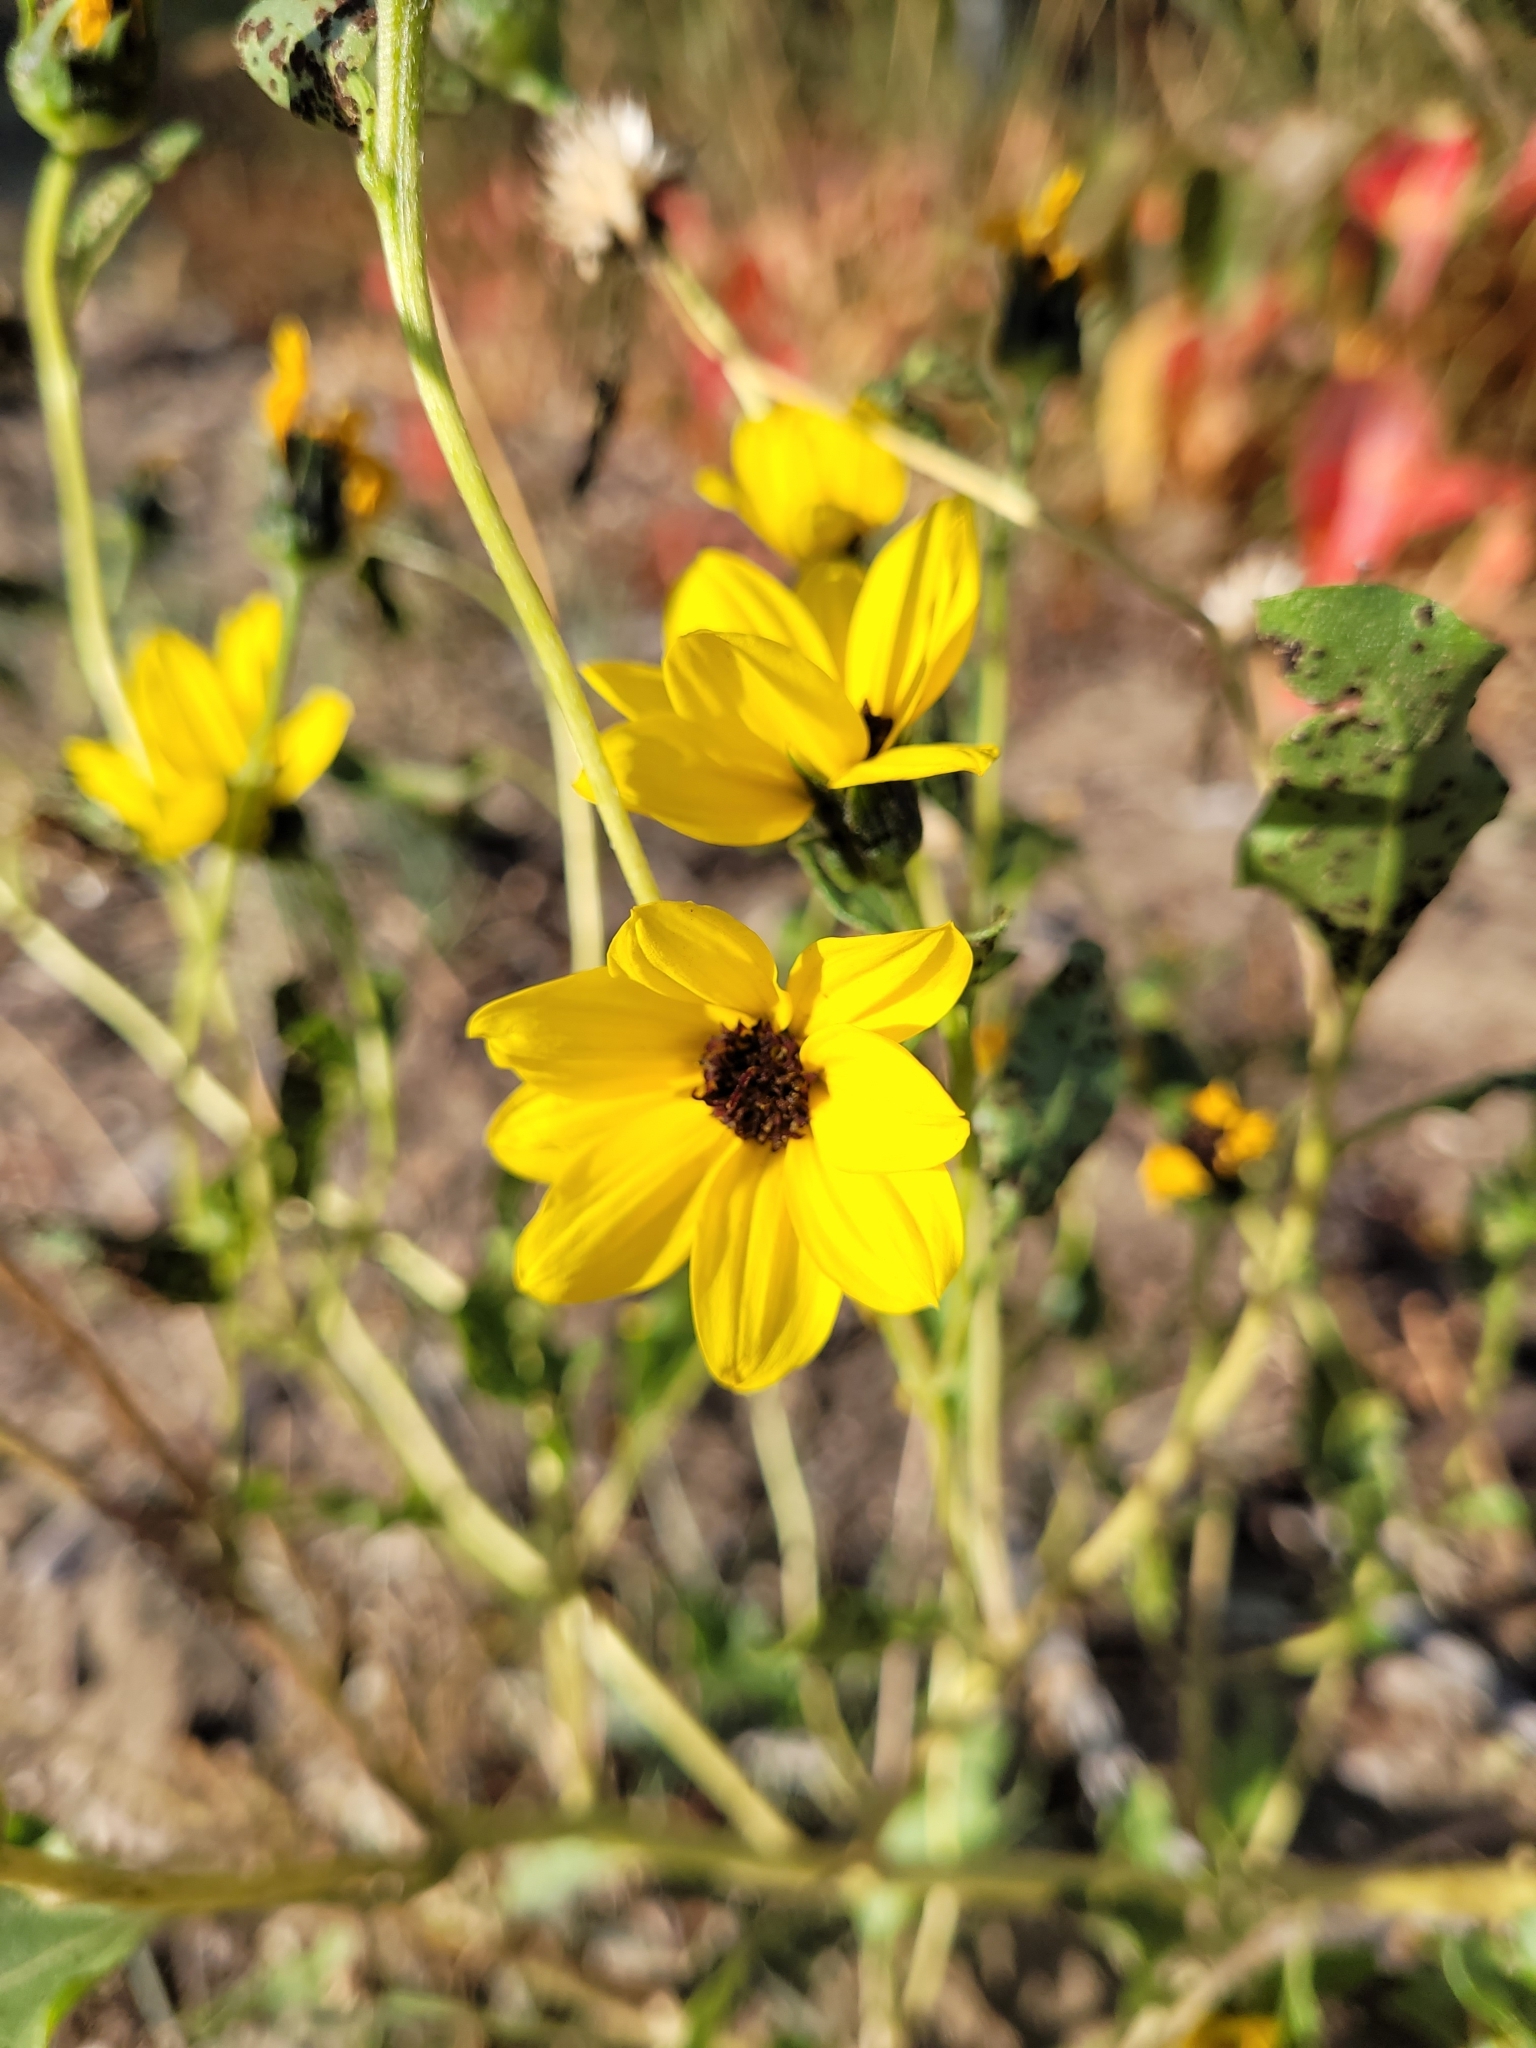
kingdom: Plantae
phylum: Tracheophyta
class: Magnoliopsida
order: Asterales
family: Asteraceae
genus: Helianthus
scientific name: Helianthus petiolaris
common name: Lesser sunflower
